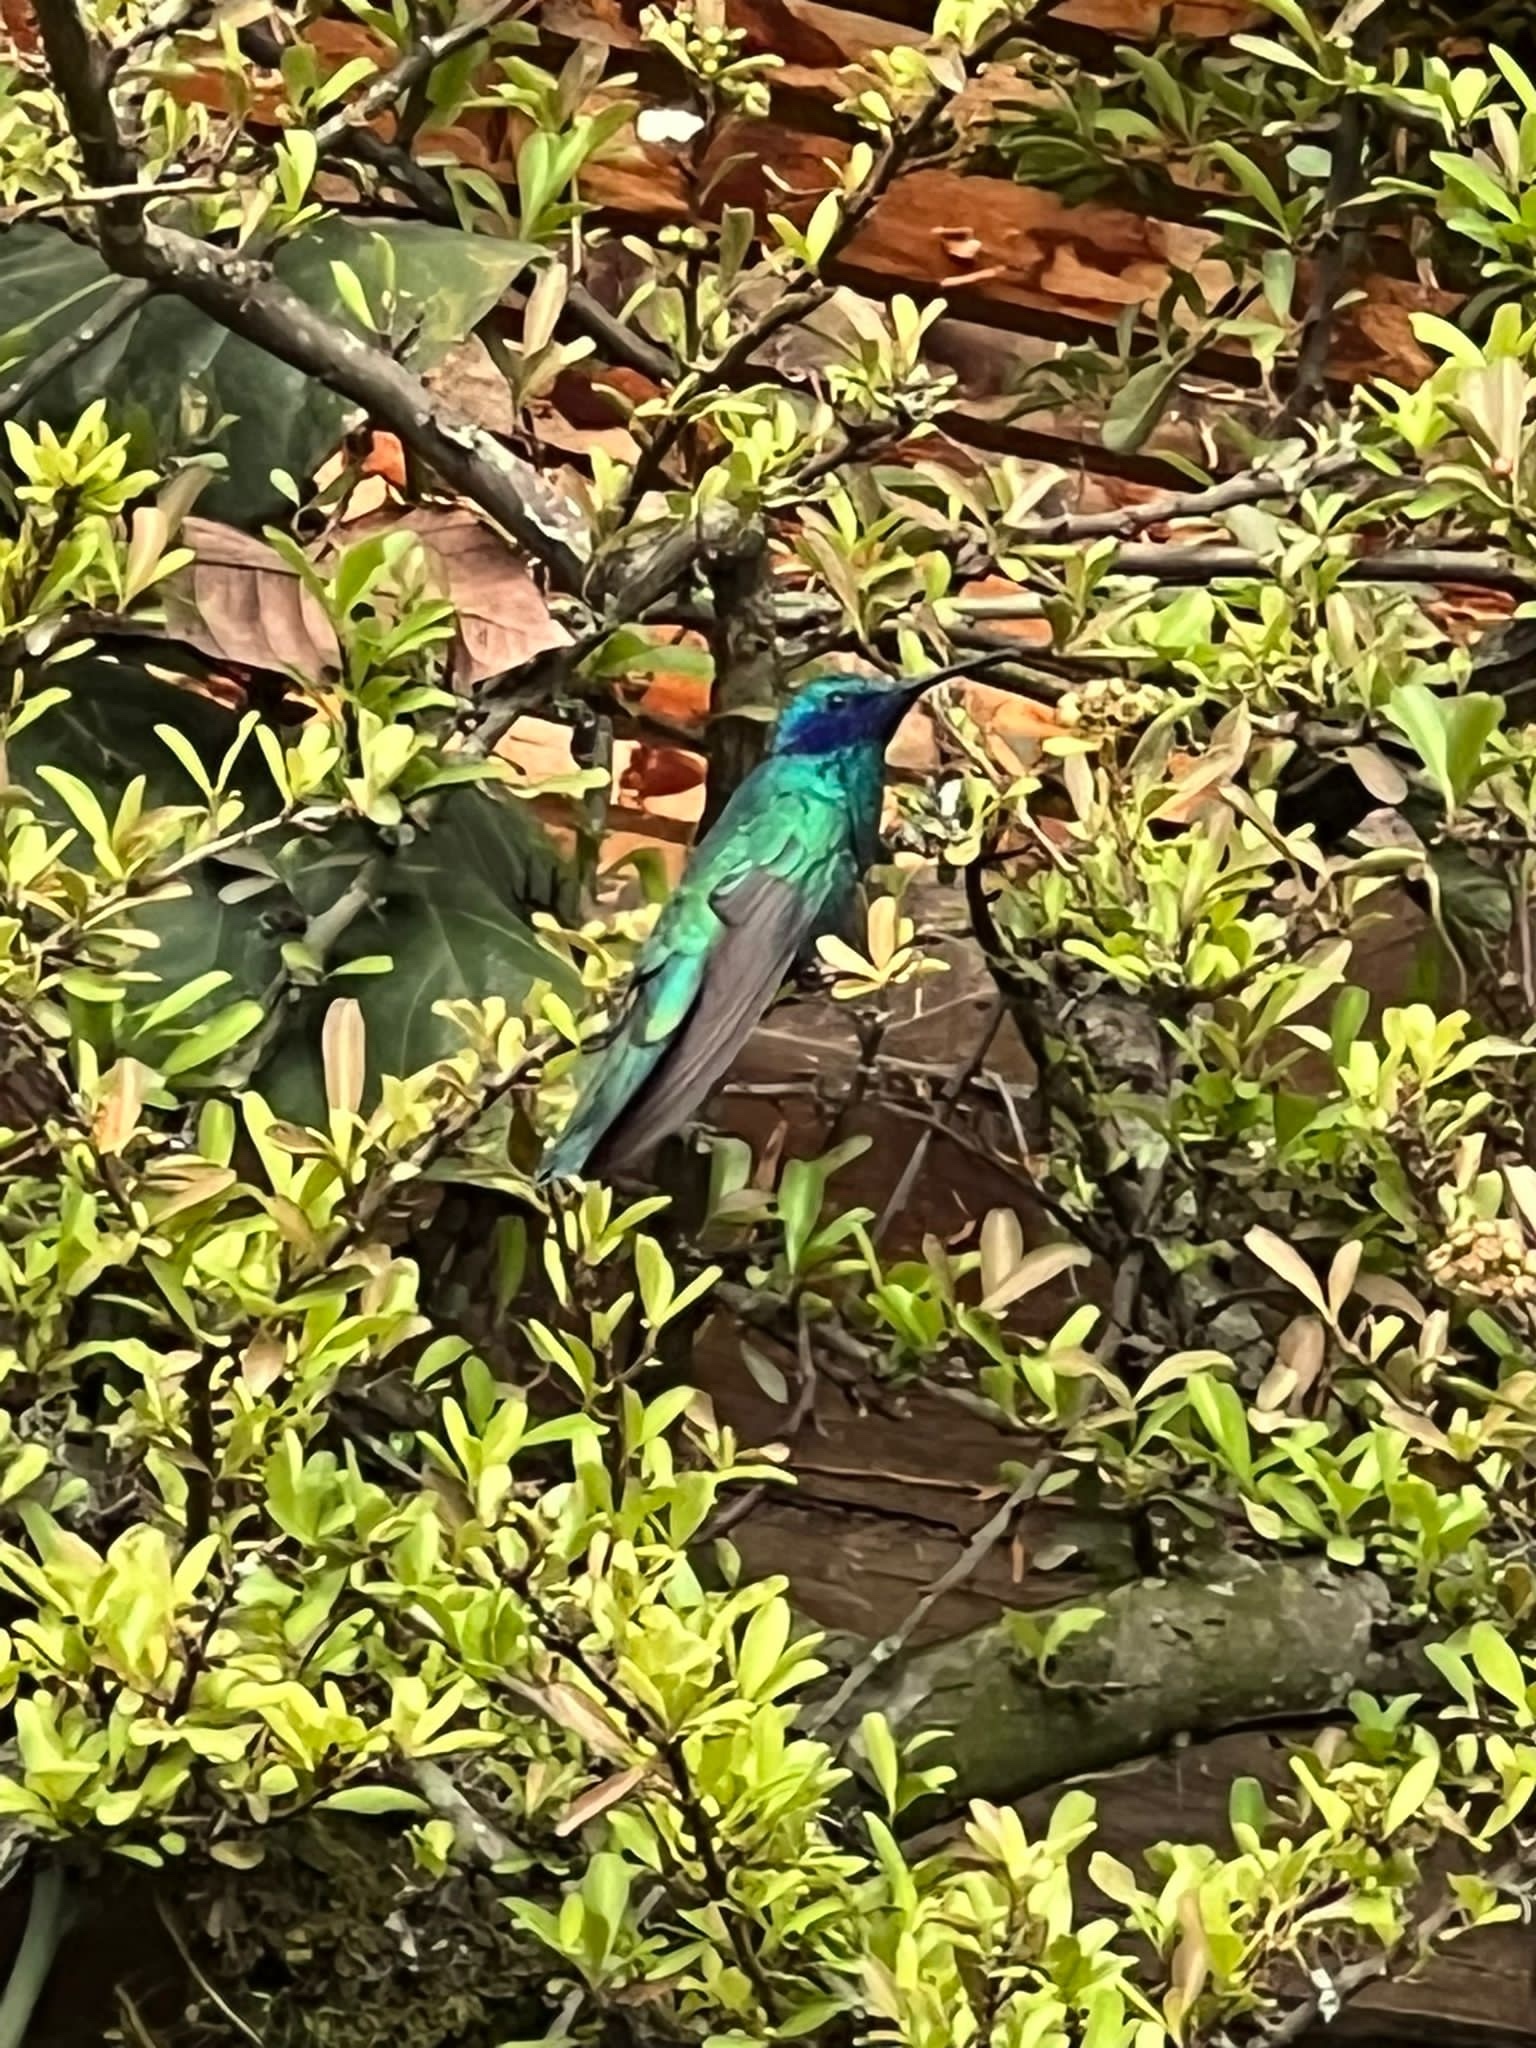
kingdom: Animalia
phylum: Chordata
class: Aves
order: Apodiformes
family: Trochilidae
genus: Colibri
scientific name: Colibri coruscans
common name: Sparkling violetear
